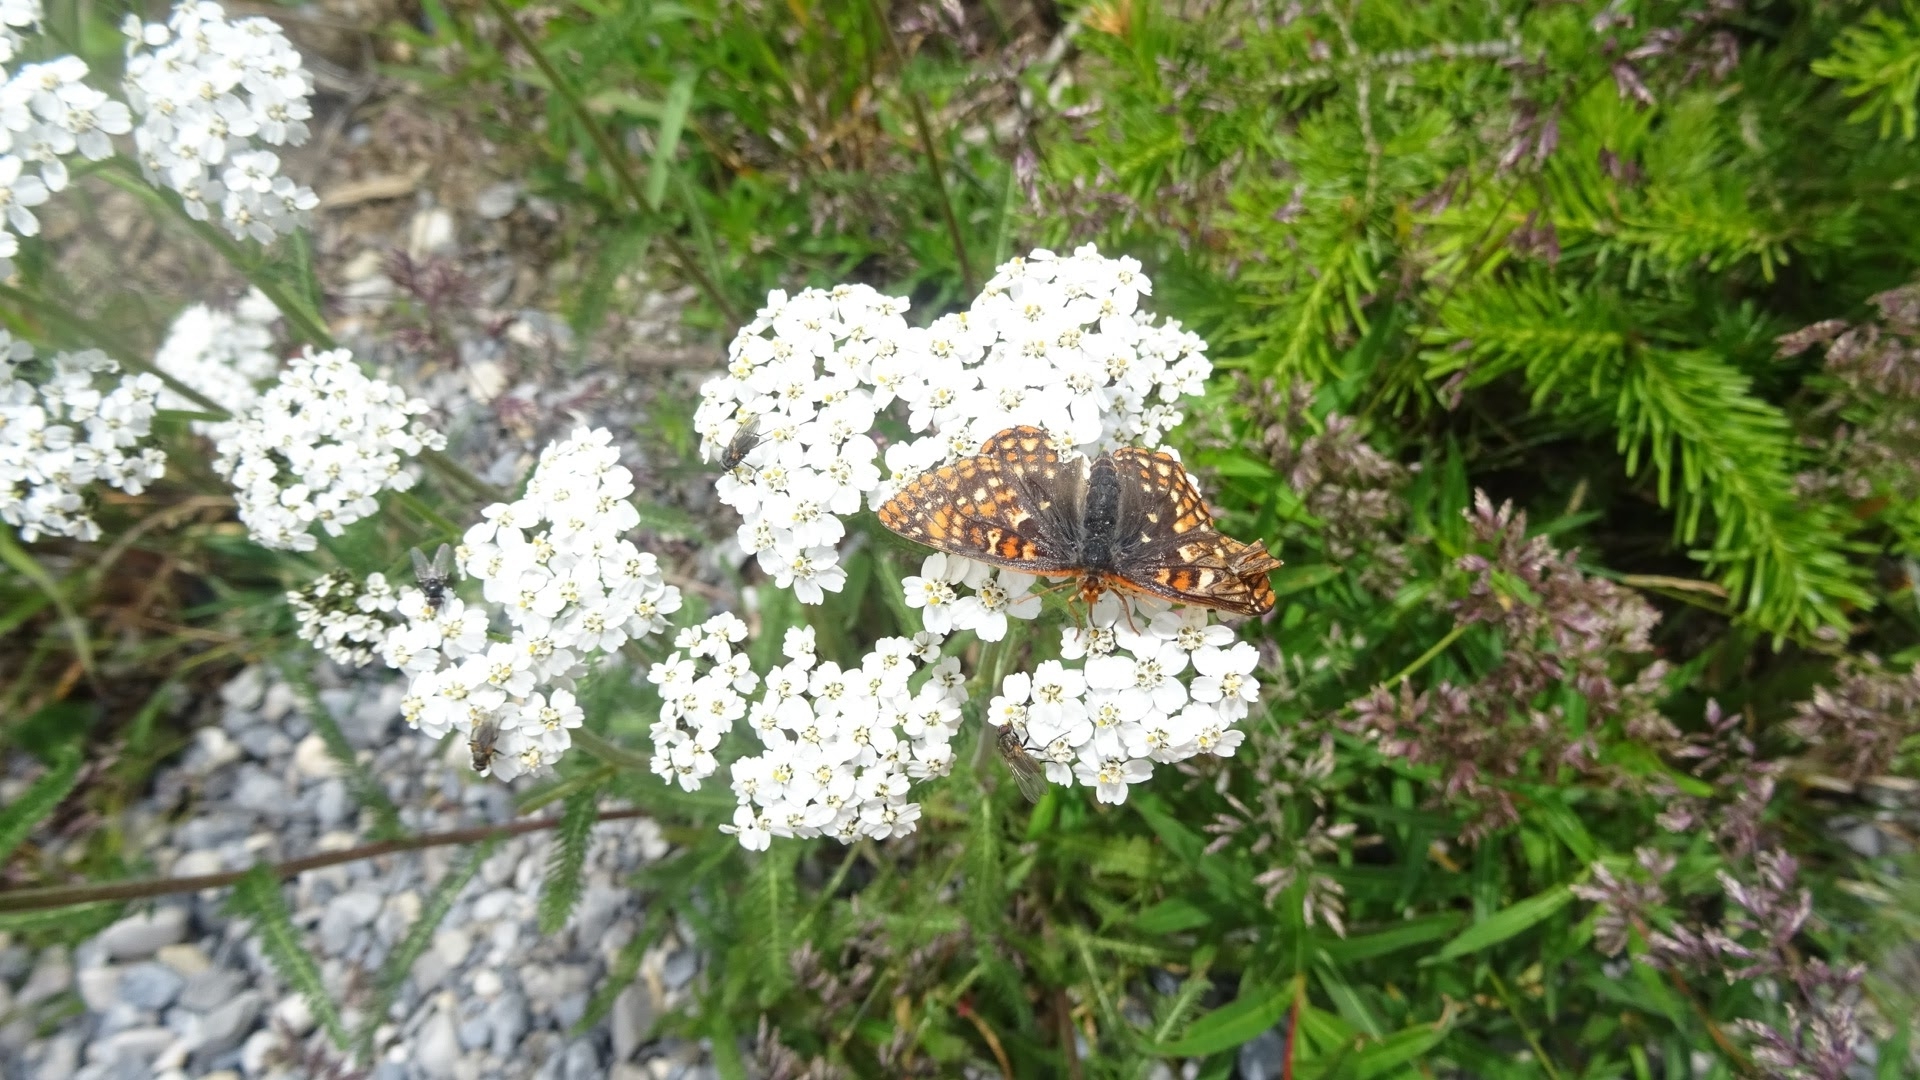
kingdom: Animalia
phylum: Arthropoda
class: Insecta
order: Lepidoptera
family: Nymphalidae
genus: Occidryas
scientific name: Occidryas anicia
